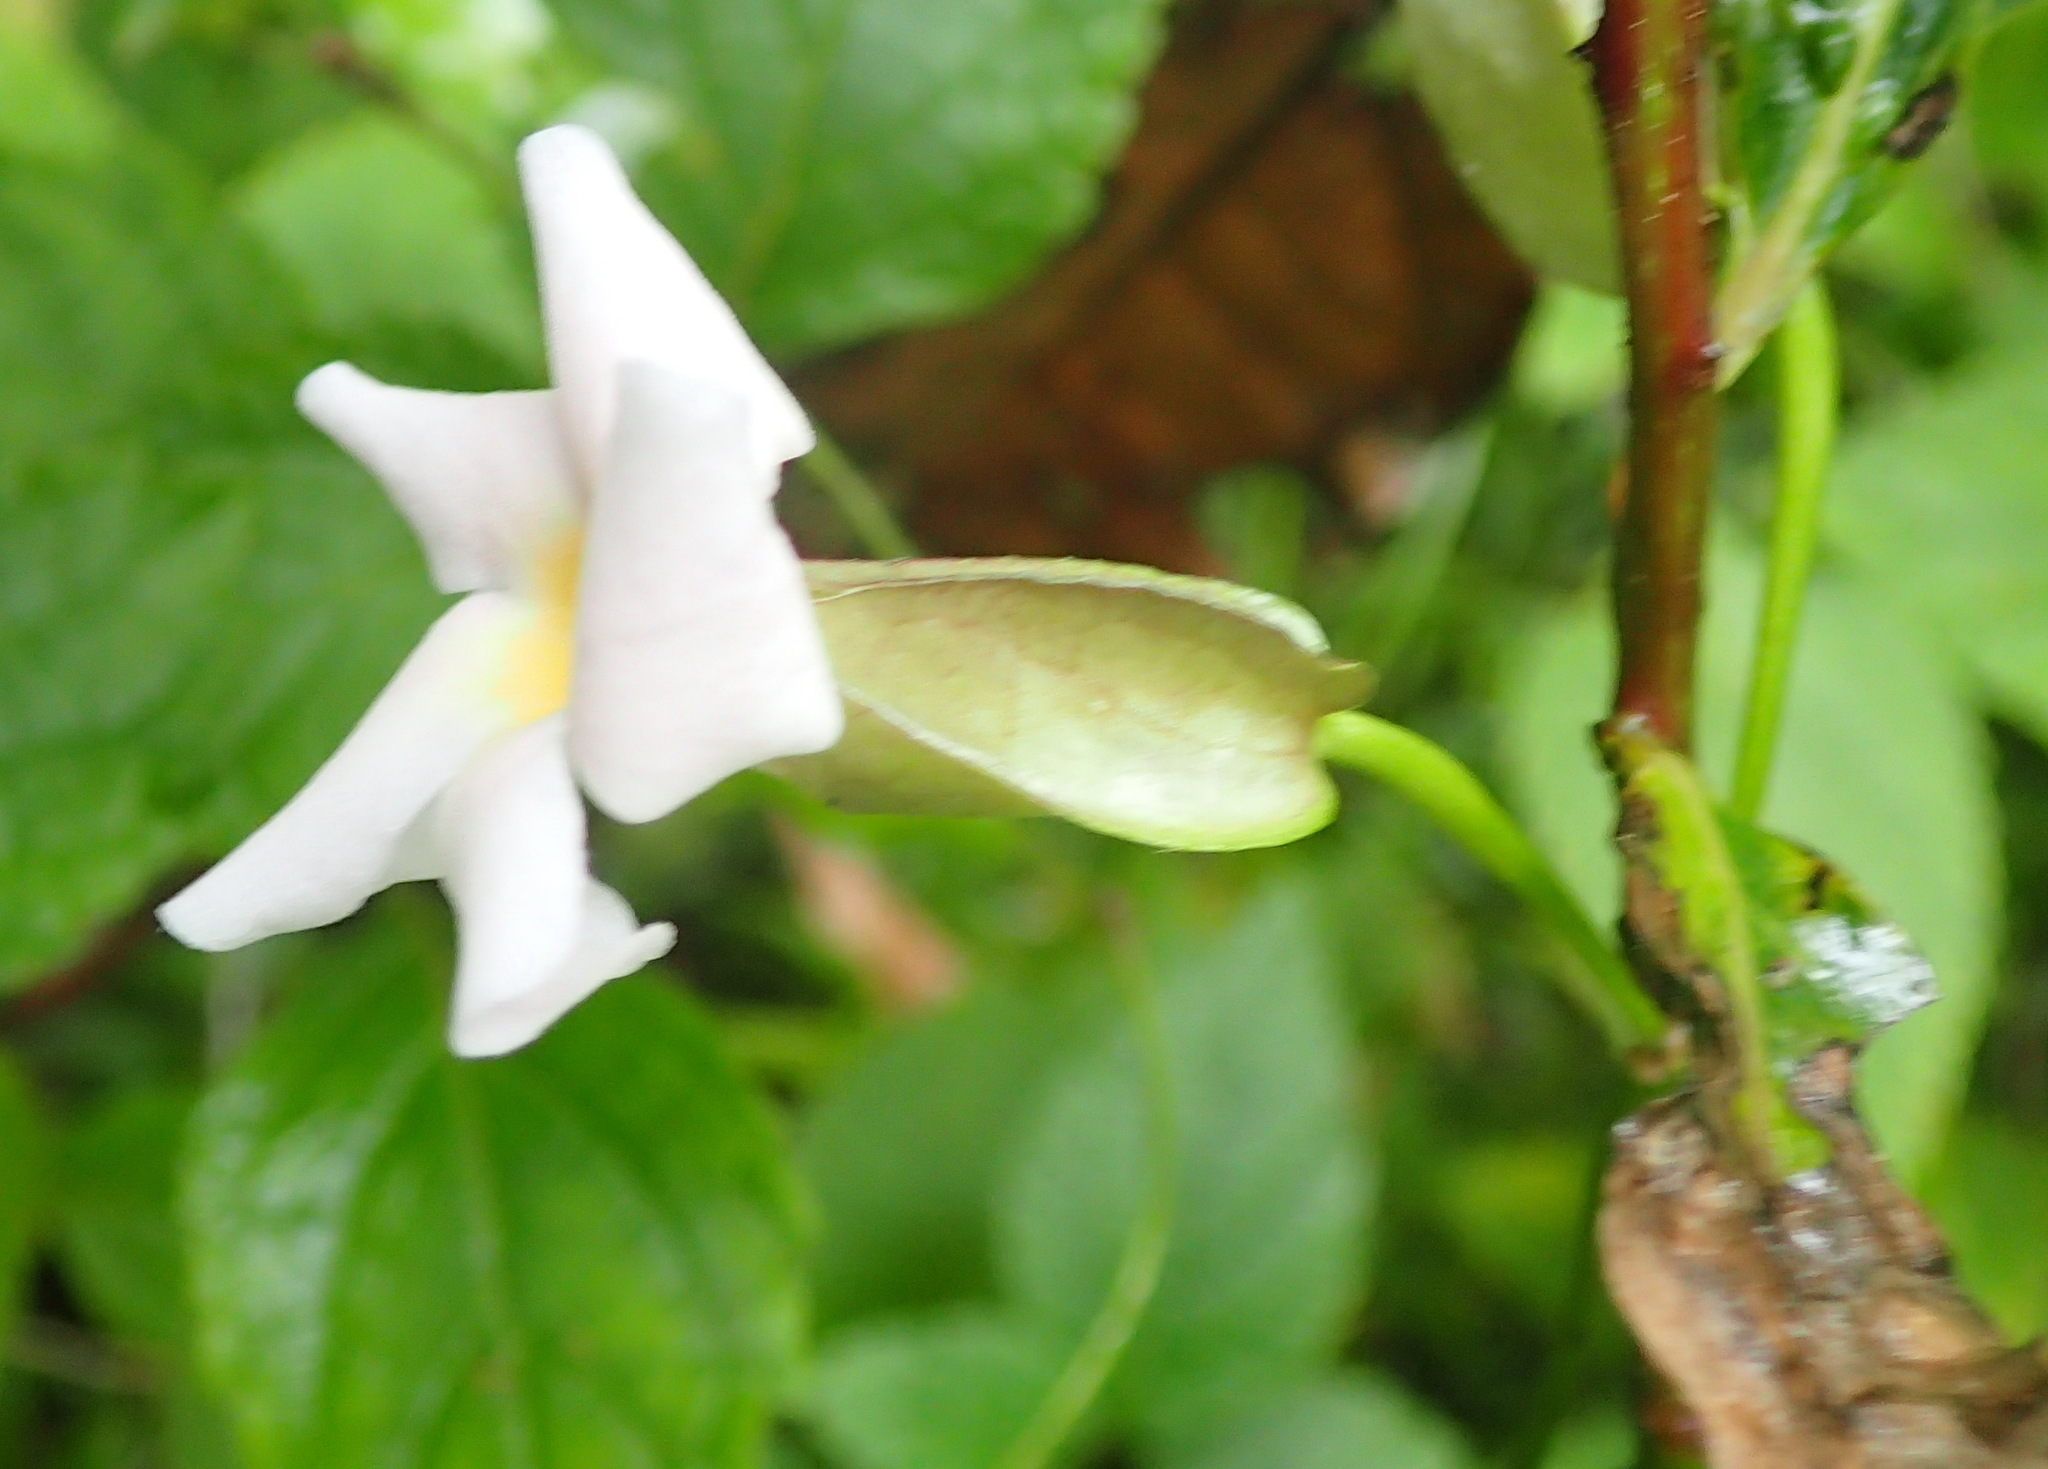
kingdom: Plantae
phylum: Tracheophyta
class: Magnoliopsida
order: Lamiales
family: Acanthaceae
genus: Thunbergia
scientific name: Thunbergia dregeana
